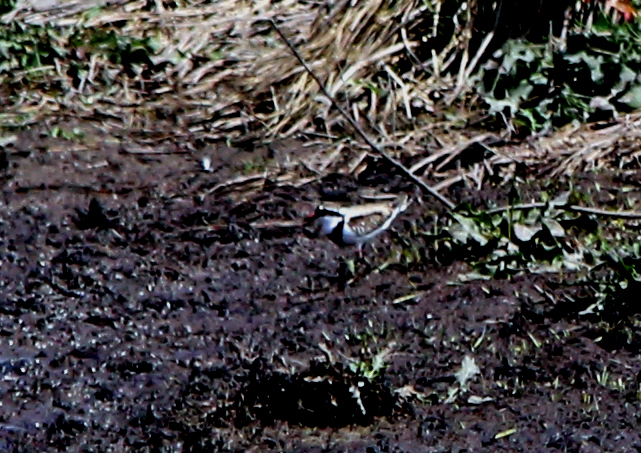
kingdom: Animalia
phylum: Chordata
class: Aves
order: Charadriiformes
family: Charadriidae
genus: Elseyornis
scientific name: Elseyornis melanops
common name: Black-fronted dotterel
